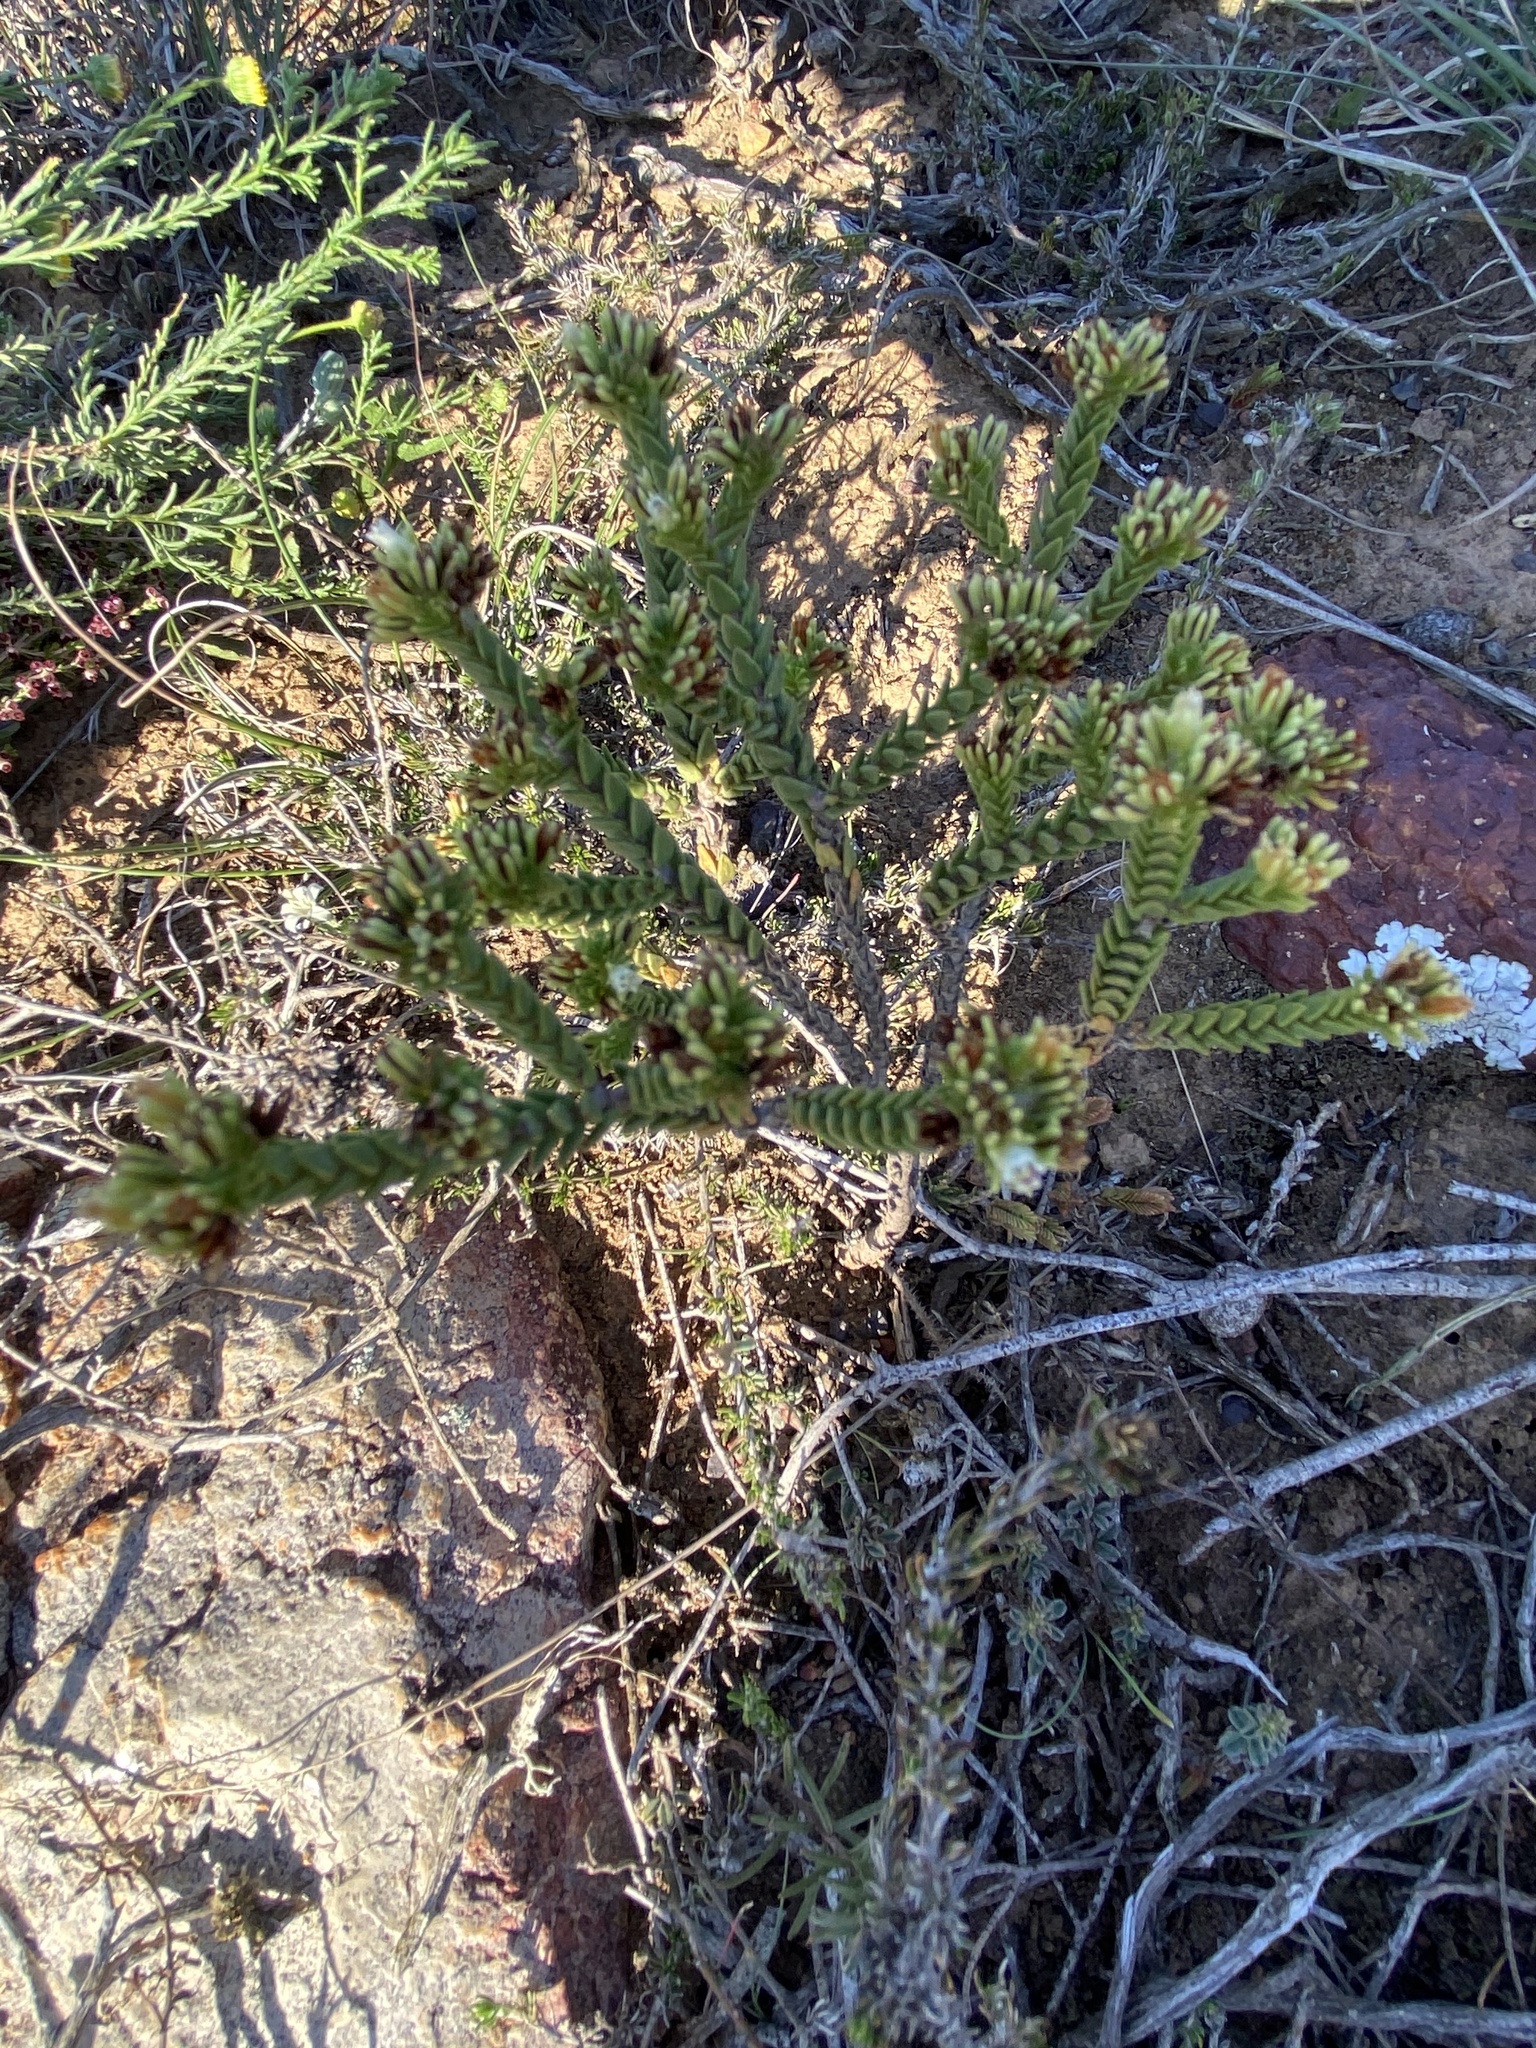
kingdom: Plantae
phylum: Tracheophyta
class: Magnoliopsida
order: Saxifragales
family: Crassulaceae
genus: Crassula
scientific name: Crassula ericoides
